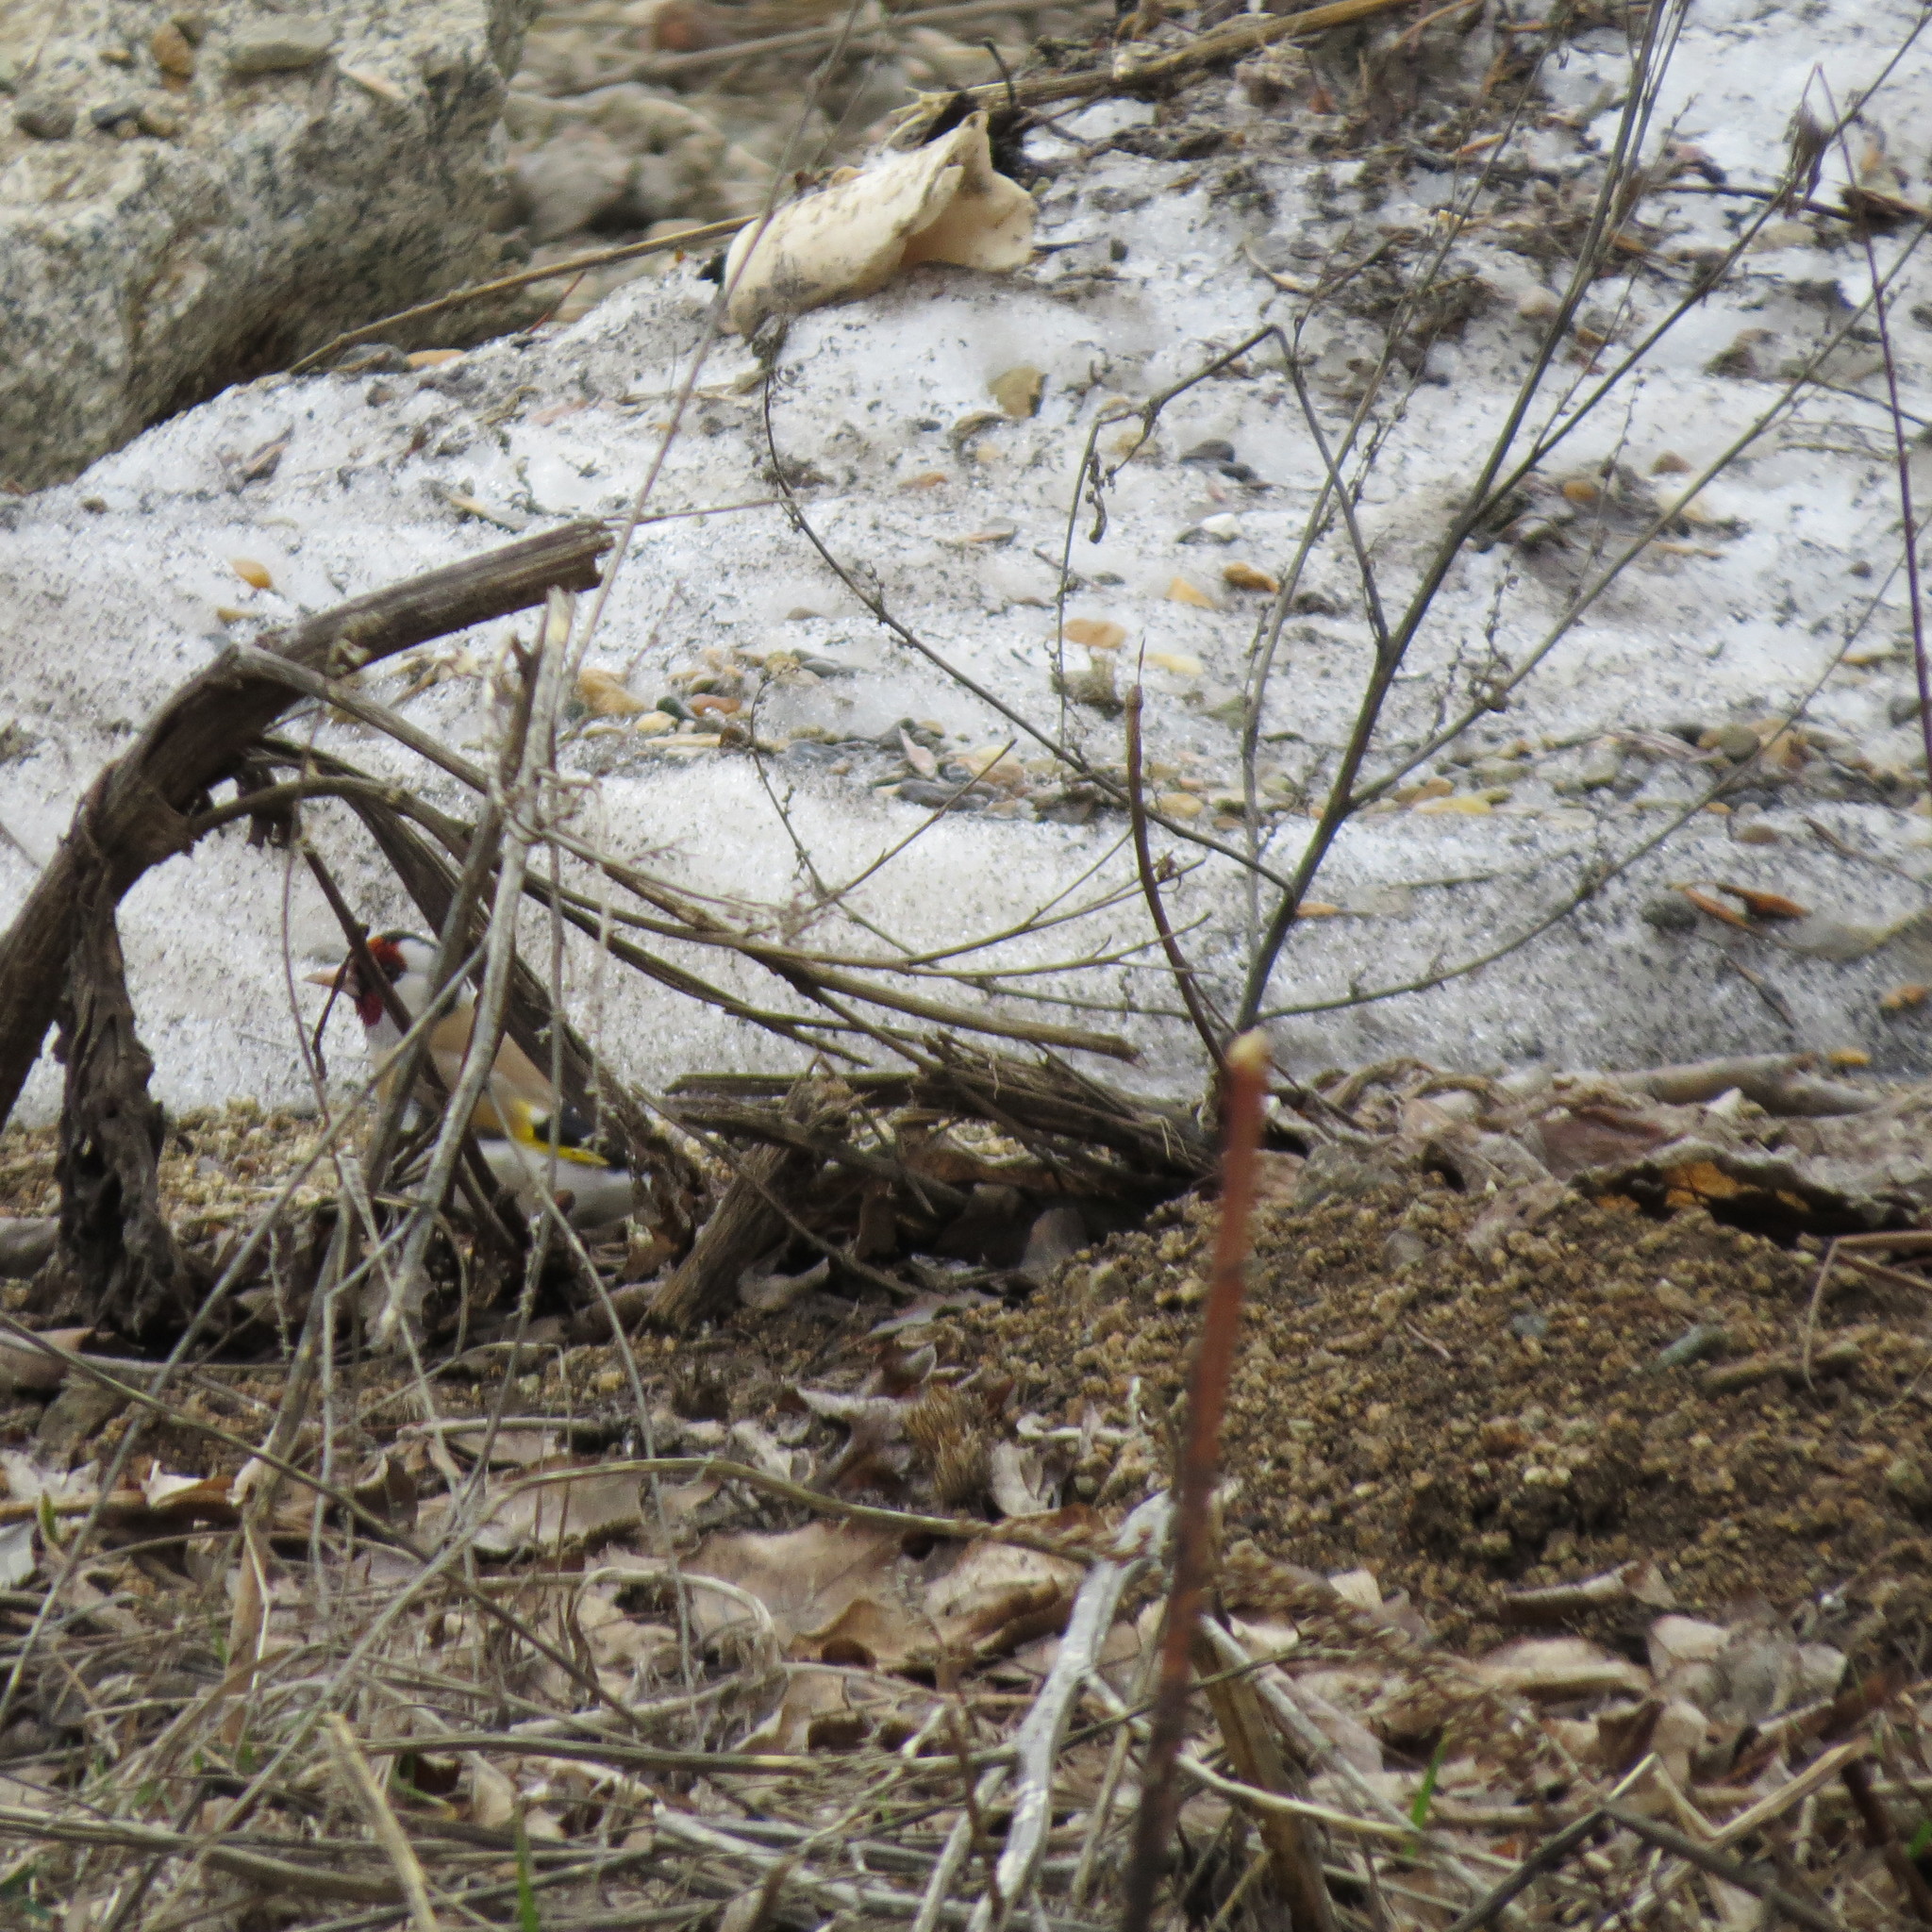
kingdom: Animalia
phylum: Chordata
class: Aves
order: Passeriformes
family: Fringillidae
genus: Carduelis
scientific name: Carduelis carduelis
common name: European goldfinch
